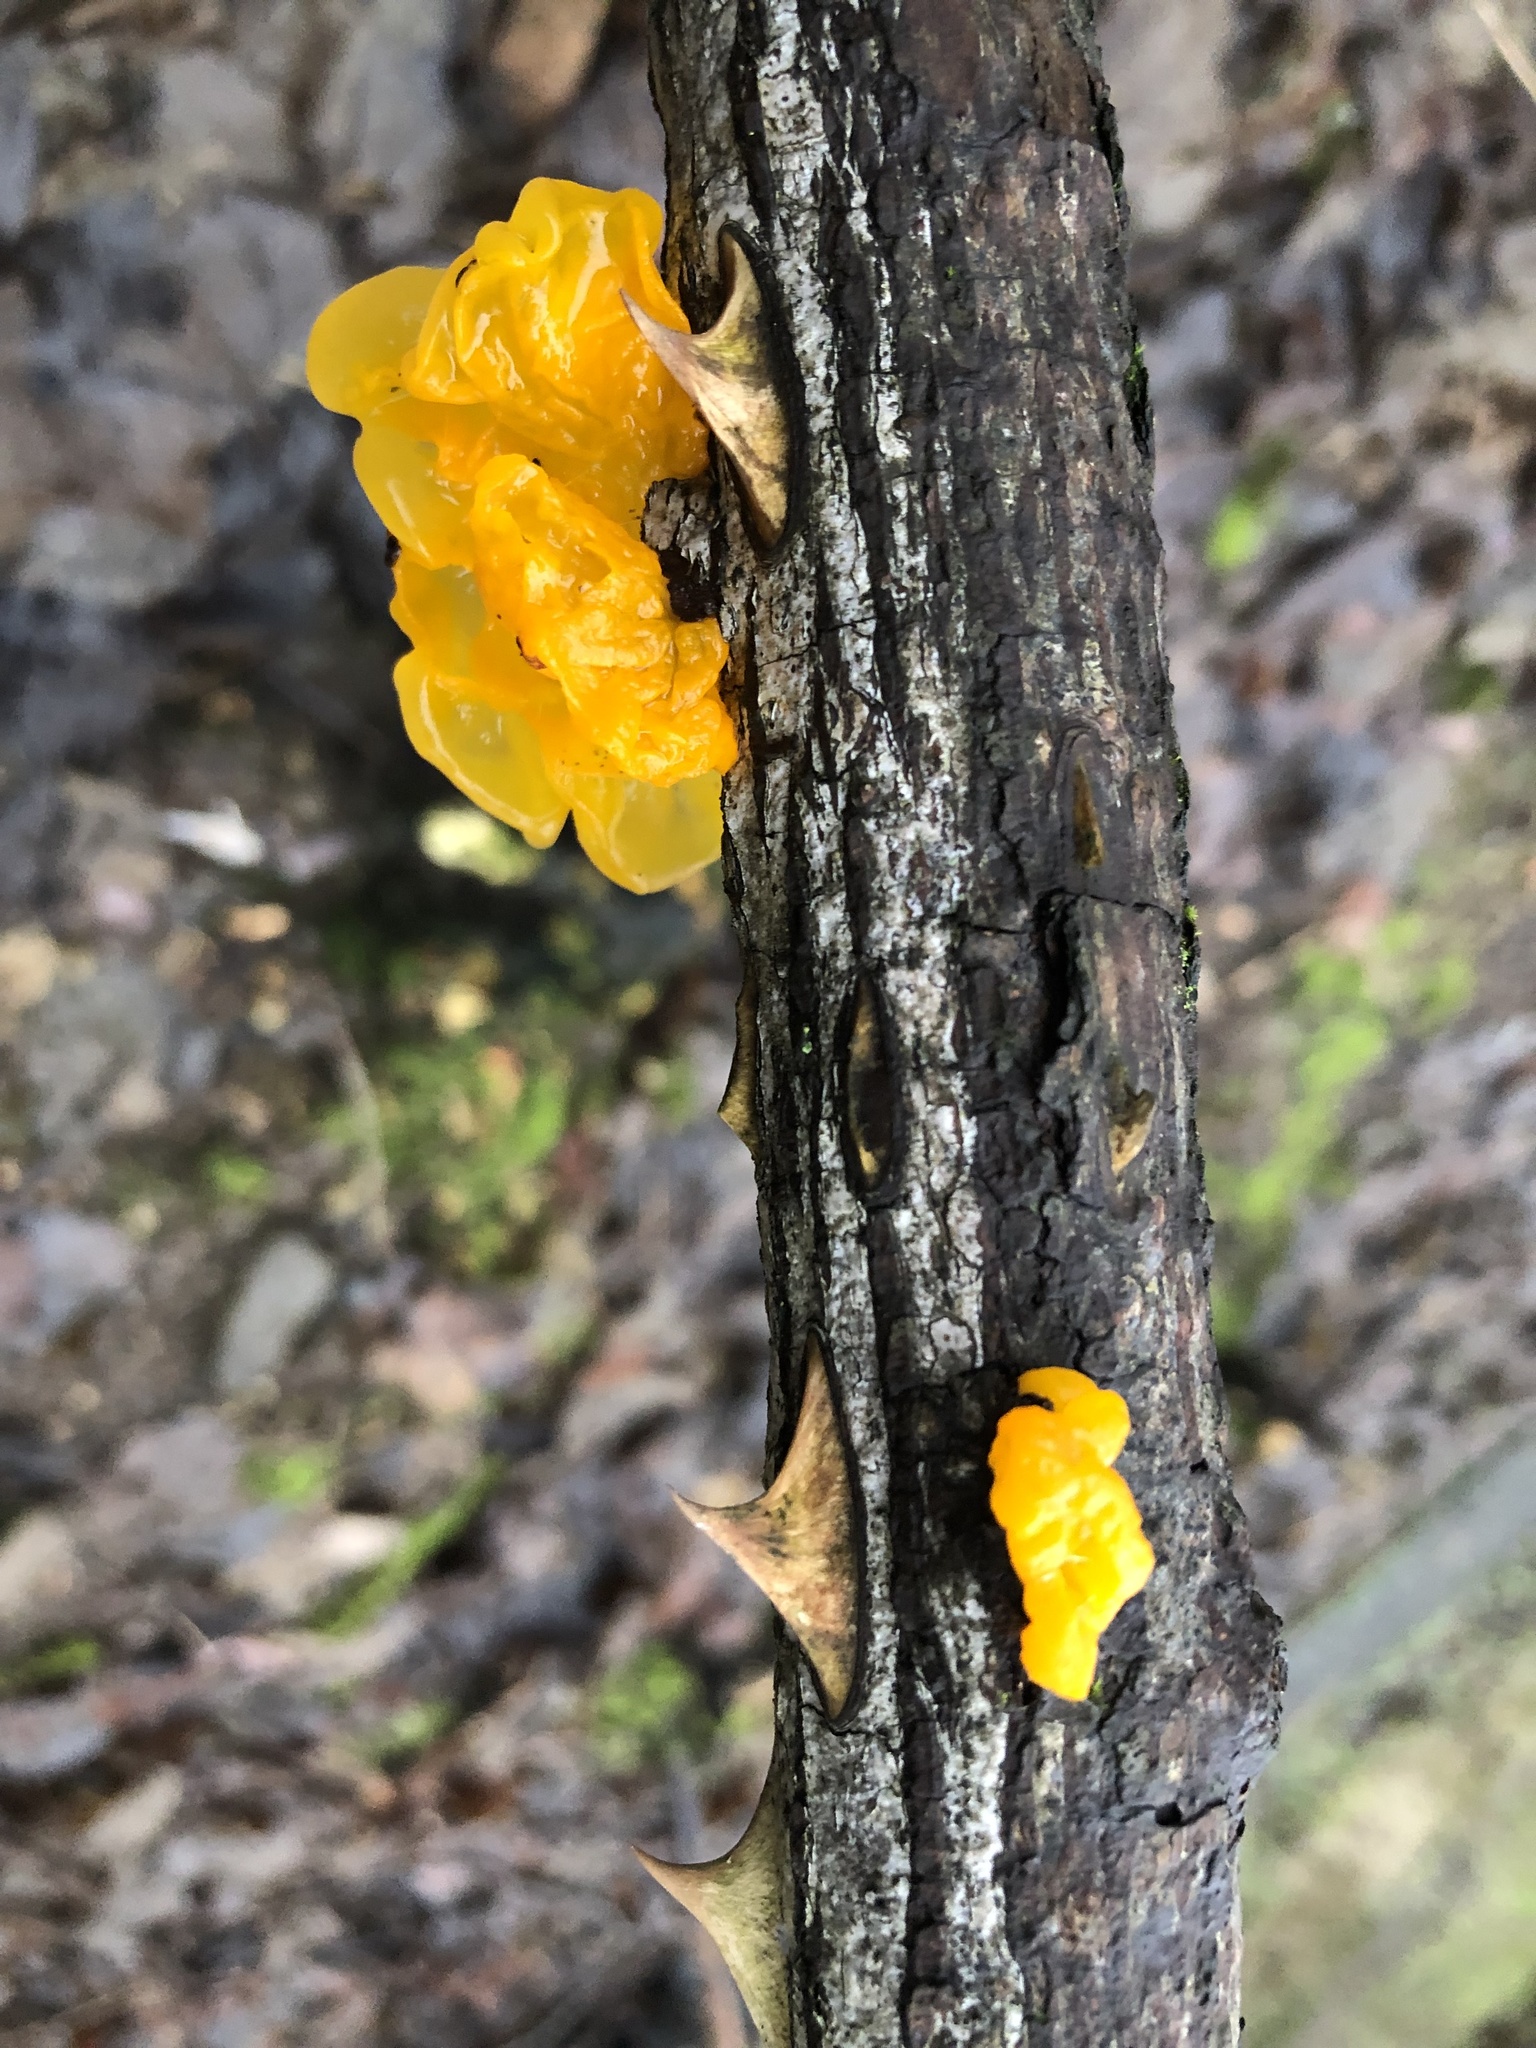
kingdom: Fungi
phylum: Basidiomycota
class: Tremellomycetes
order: Tremellales
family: Tremellaceae
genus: Tremella
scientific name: Tremella mesenterica
